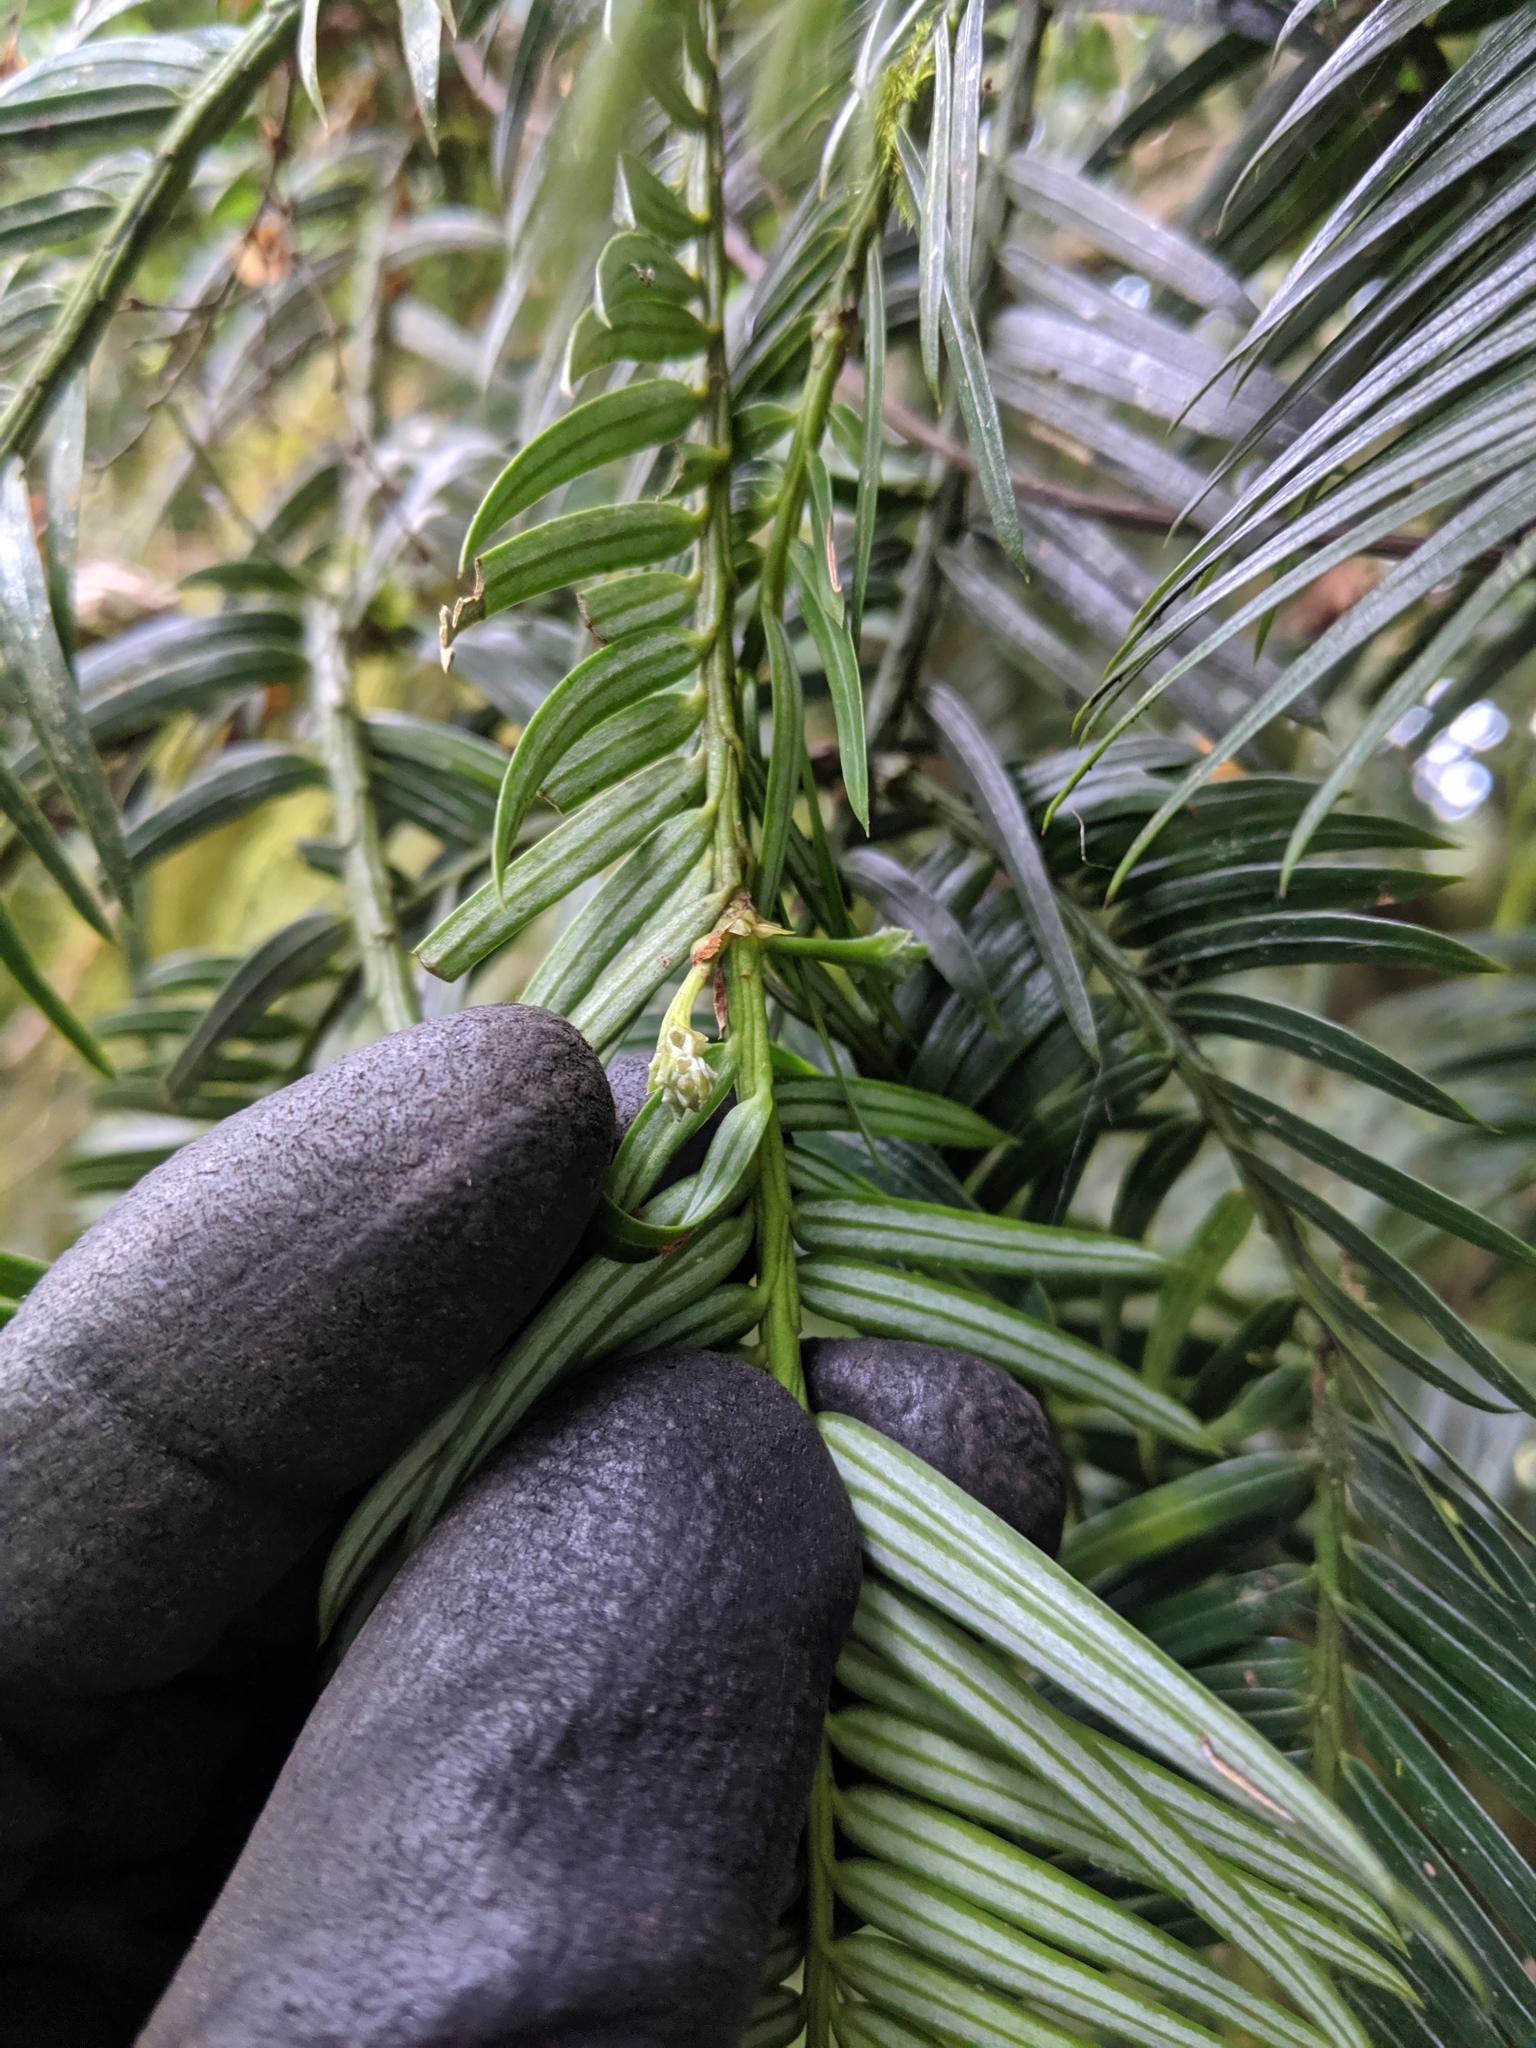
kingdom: Plantae
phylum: Tracheophyta
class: Pinopsida
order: Pinales
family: Cephalotaxaceae
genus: Cephalotaxus
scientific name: Cephalotaxus harringtonii
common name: Harrington's plum yew
